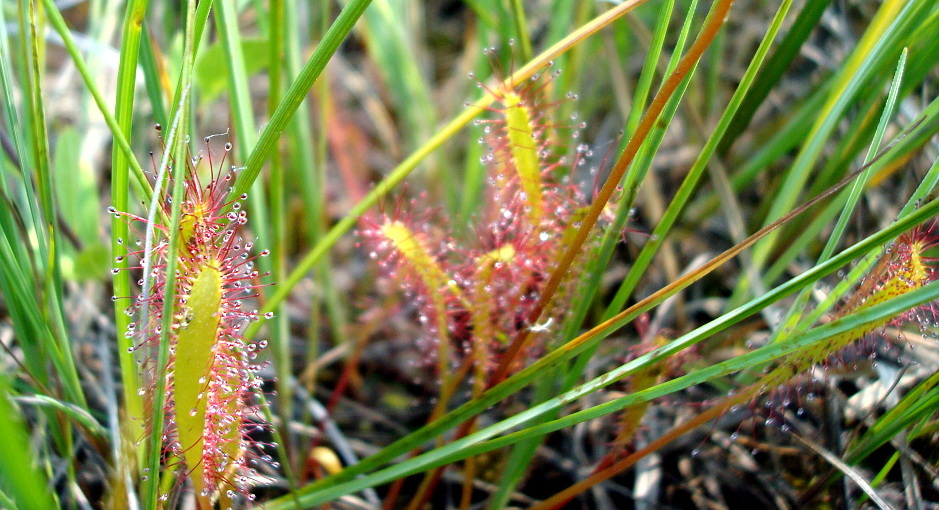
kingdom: Plantae
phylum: Tracheophyta
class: Magnoliopsida
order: Caryophyllales
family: Droseraceae
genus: Drosera
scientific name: Drosera anglica
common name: Great sundew
